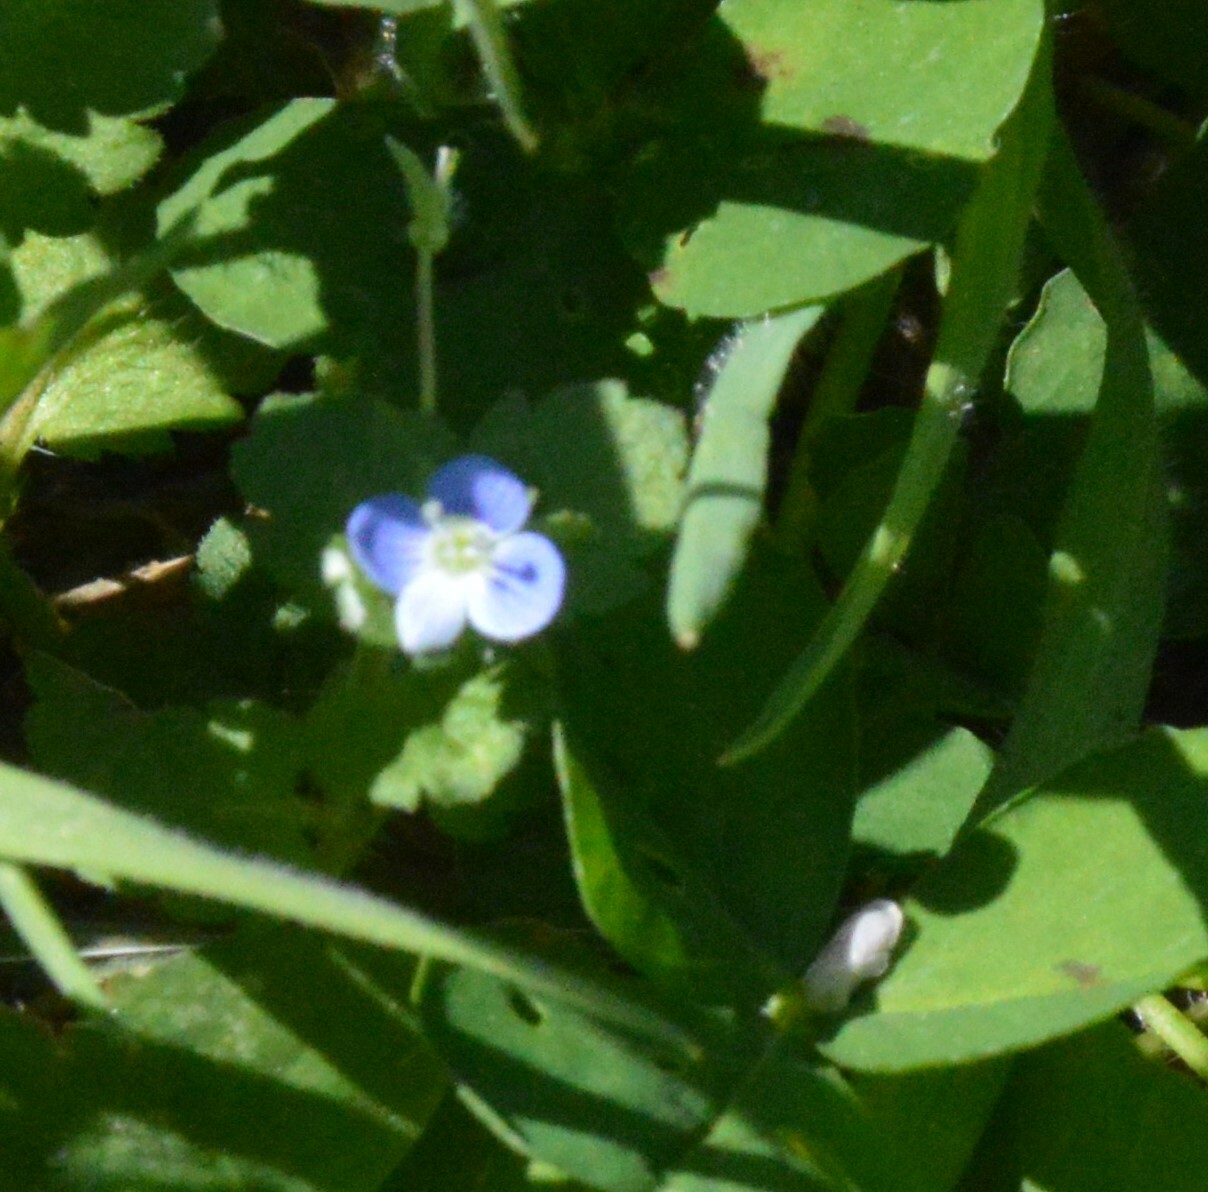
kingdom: Plantae
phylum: Tracheophyta
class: Magnoliopsida
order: Lamiales
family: Plantaginaceae
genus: Veronica
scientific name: Veronica persica
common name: Common field-speedwell
